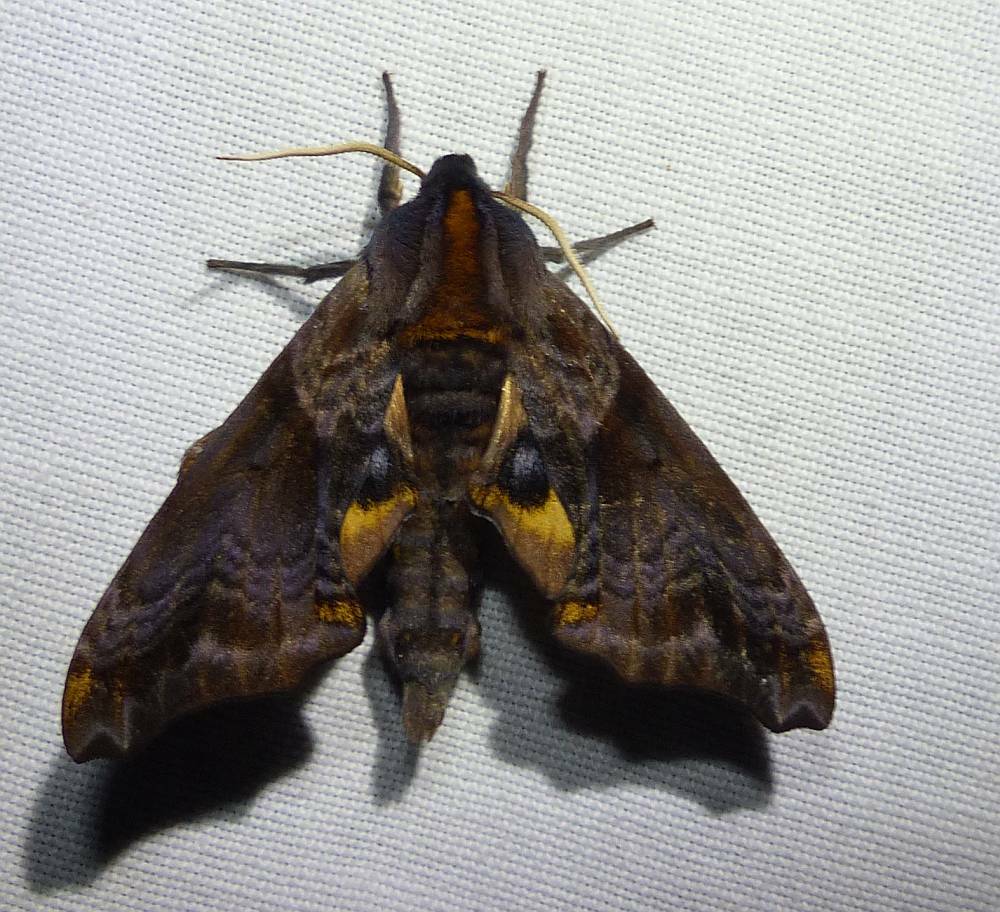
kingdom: Animalia
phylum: Arthropoda
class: Insecta
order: Lepidoptera
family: Sphingidae
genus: Paonias
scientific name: Paonias myops
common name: Small-eyed sphinx
